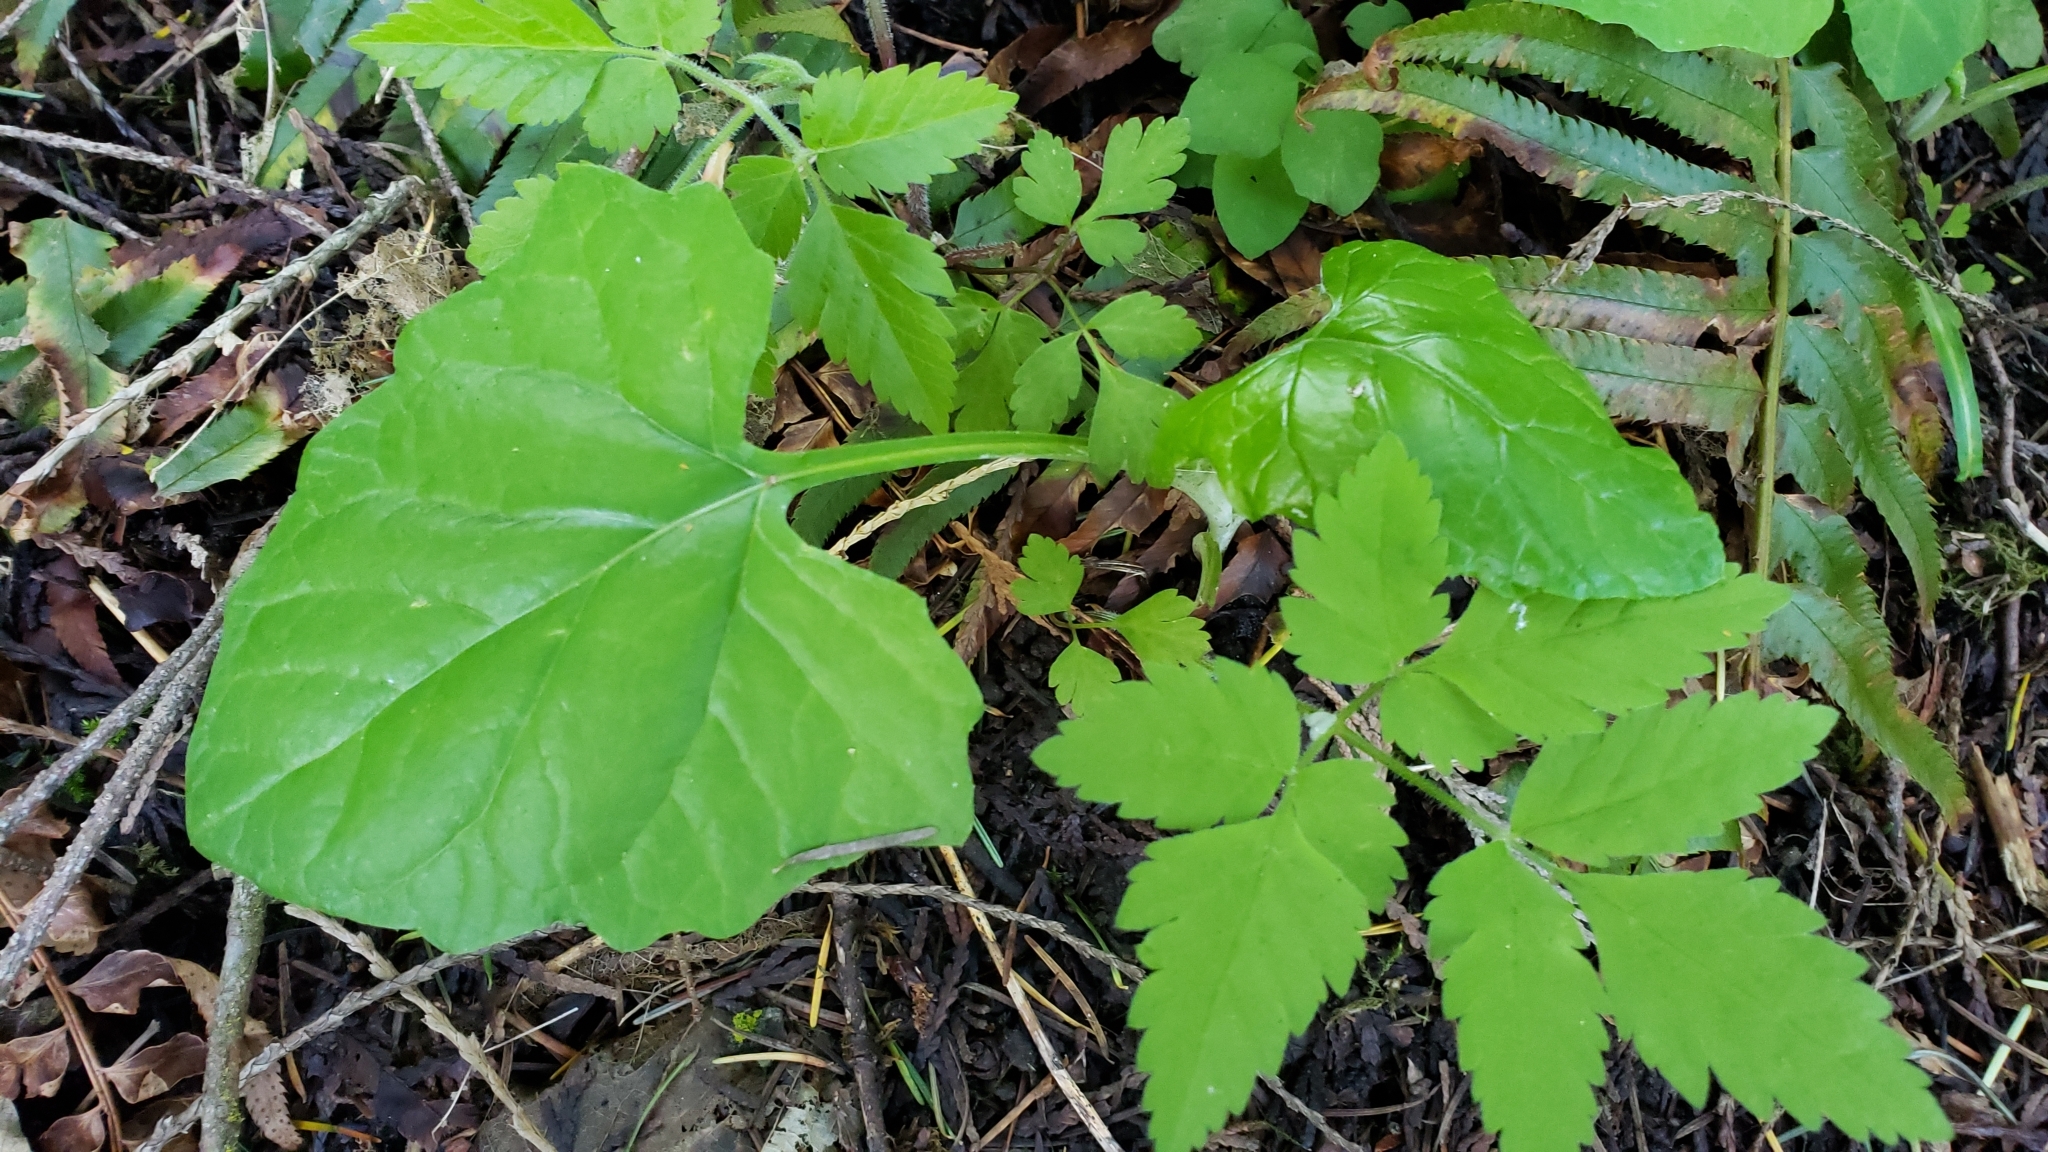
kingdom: Plantae
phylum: Tracheophyta
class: Magnoliopsida
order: Asterales
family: Asteraceae
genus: Adenocaulon
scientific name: Adenocaulon bicolor
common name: Trailplant
